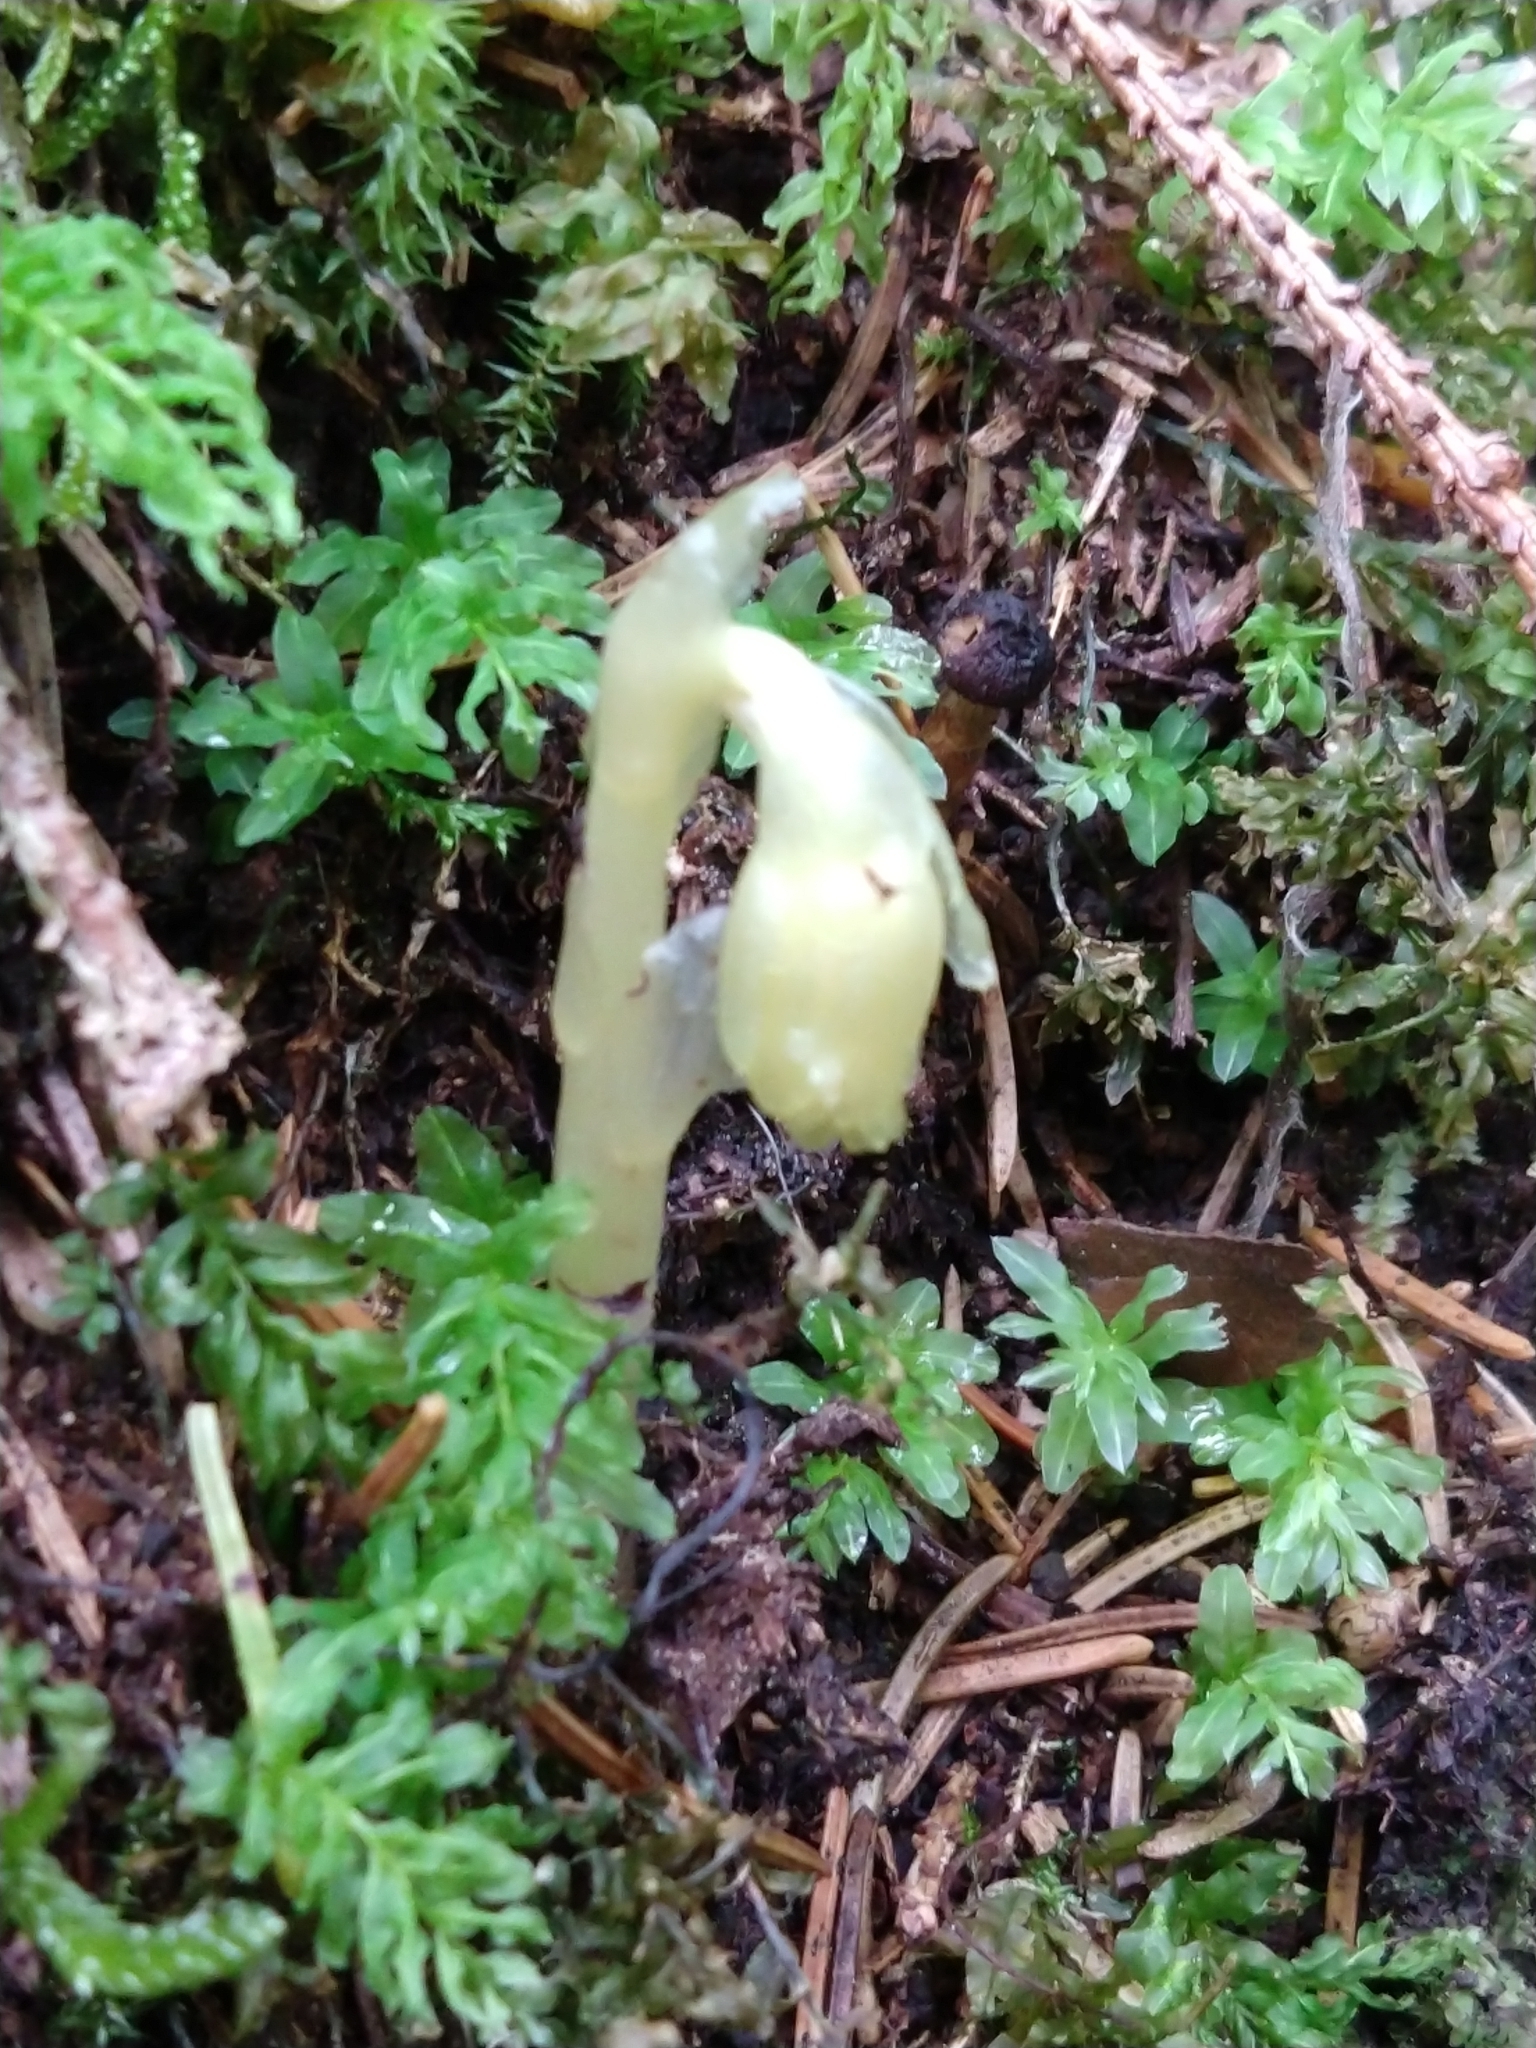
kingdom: Plantae
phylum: Tracheophyta
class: Magnoliopsida
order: Ericales
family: Ericaceae
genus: Hypopitys
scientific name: Hypopitys monotropa
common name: Yellow bird's-nest
